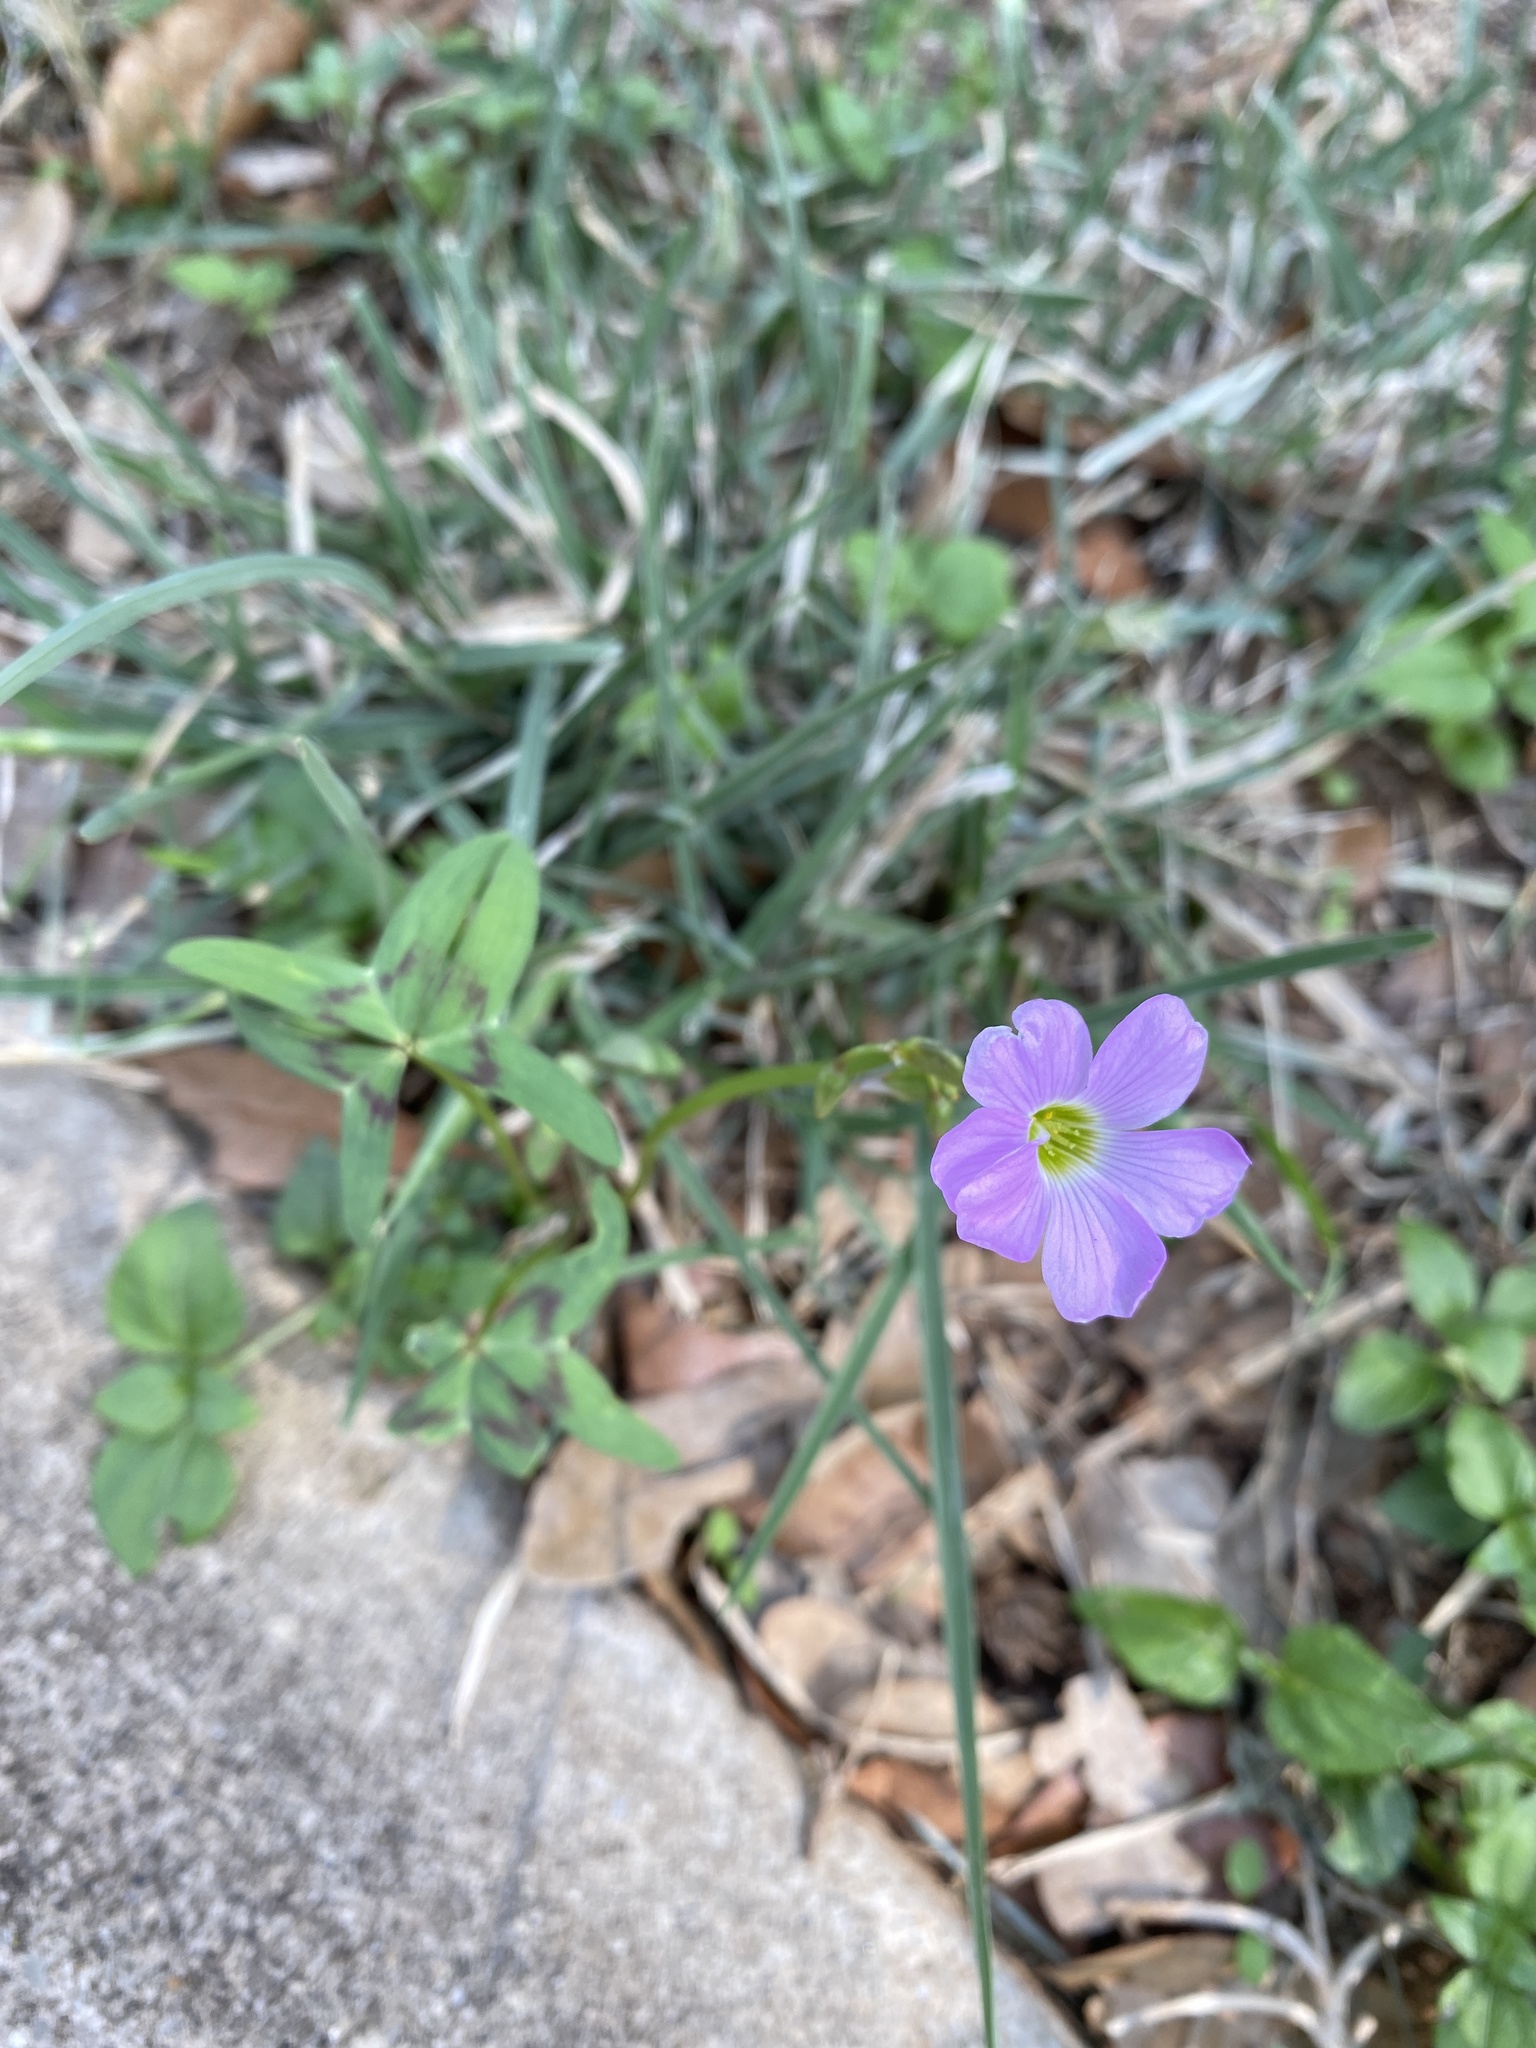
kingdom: Plantae
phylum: Tracheophyta
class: Magnoliopsida
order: Oxalidales
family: Oxalidaceae
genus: Oxalis
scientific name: Oxalis drummondii
